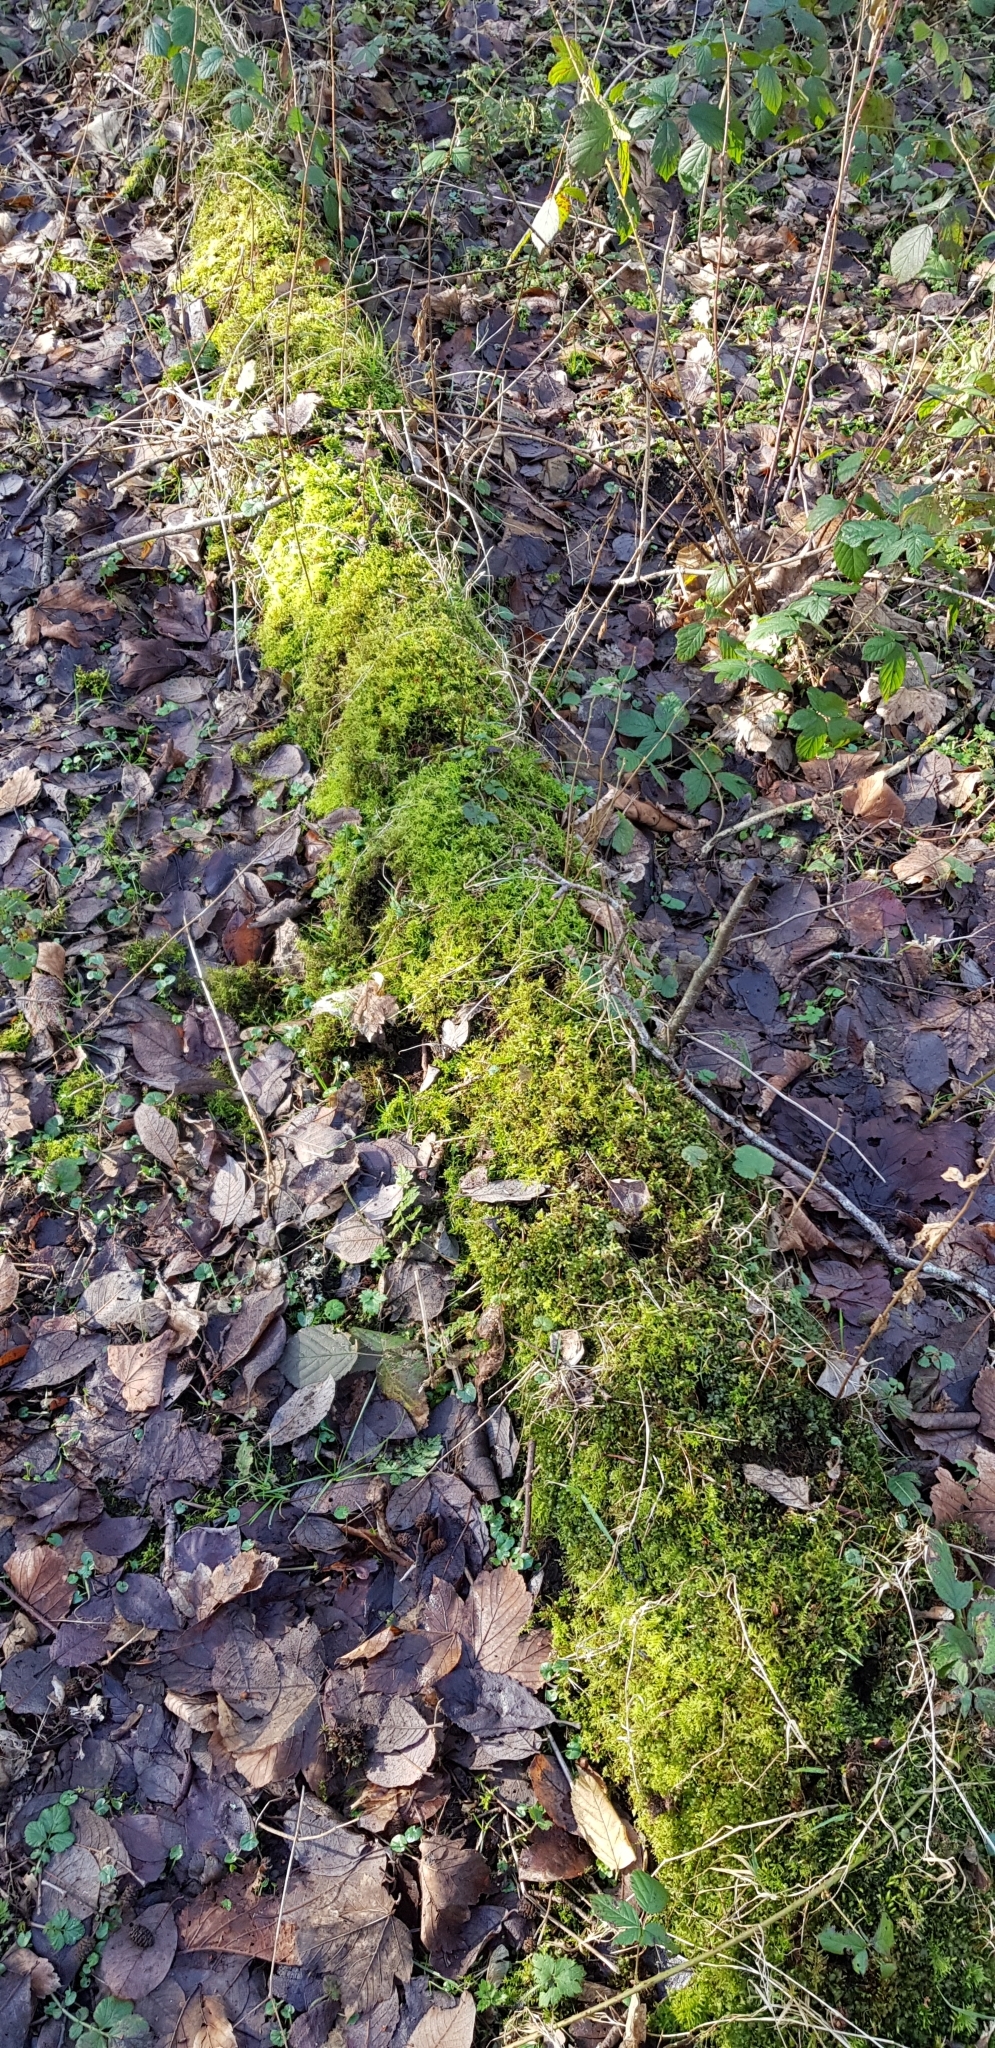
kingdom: Plantae
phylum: Bryophyta
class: Bryopsida
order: Hypnales
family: Pylaisiaceae
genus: Calliergonella
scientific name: Calliergonella cuspidata
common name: Common large wetland moss
